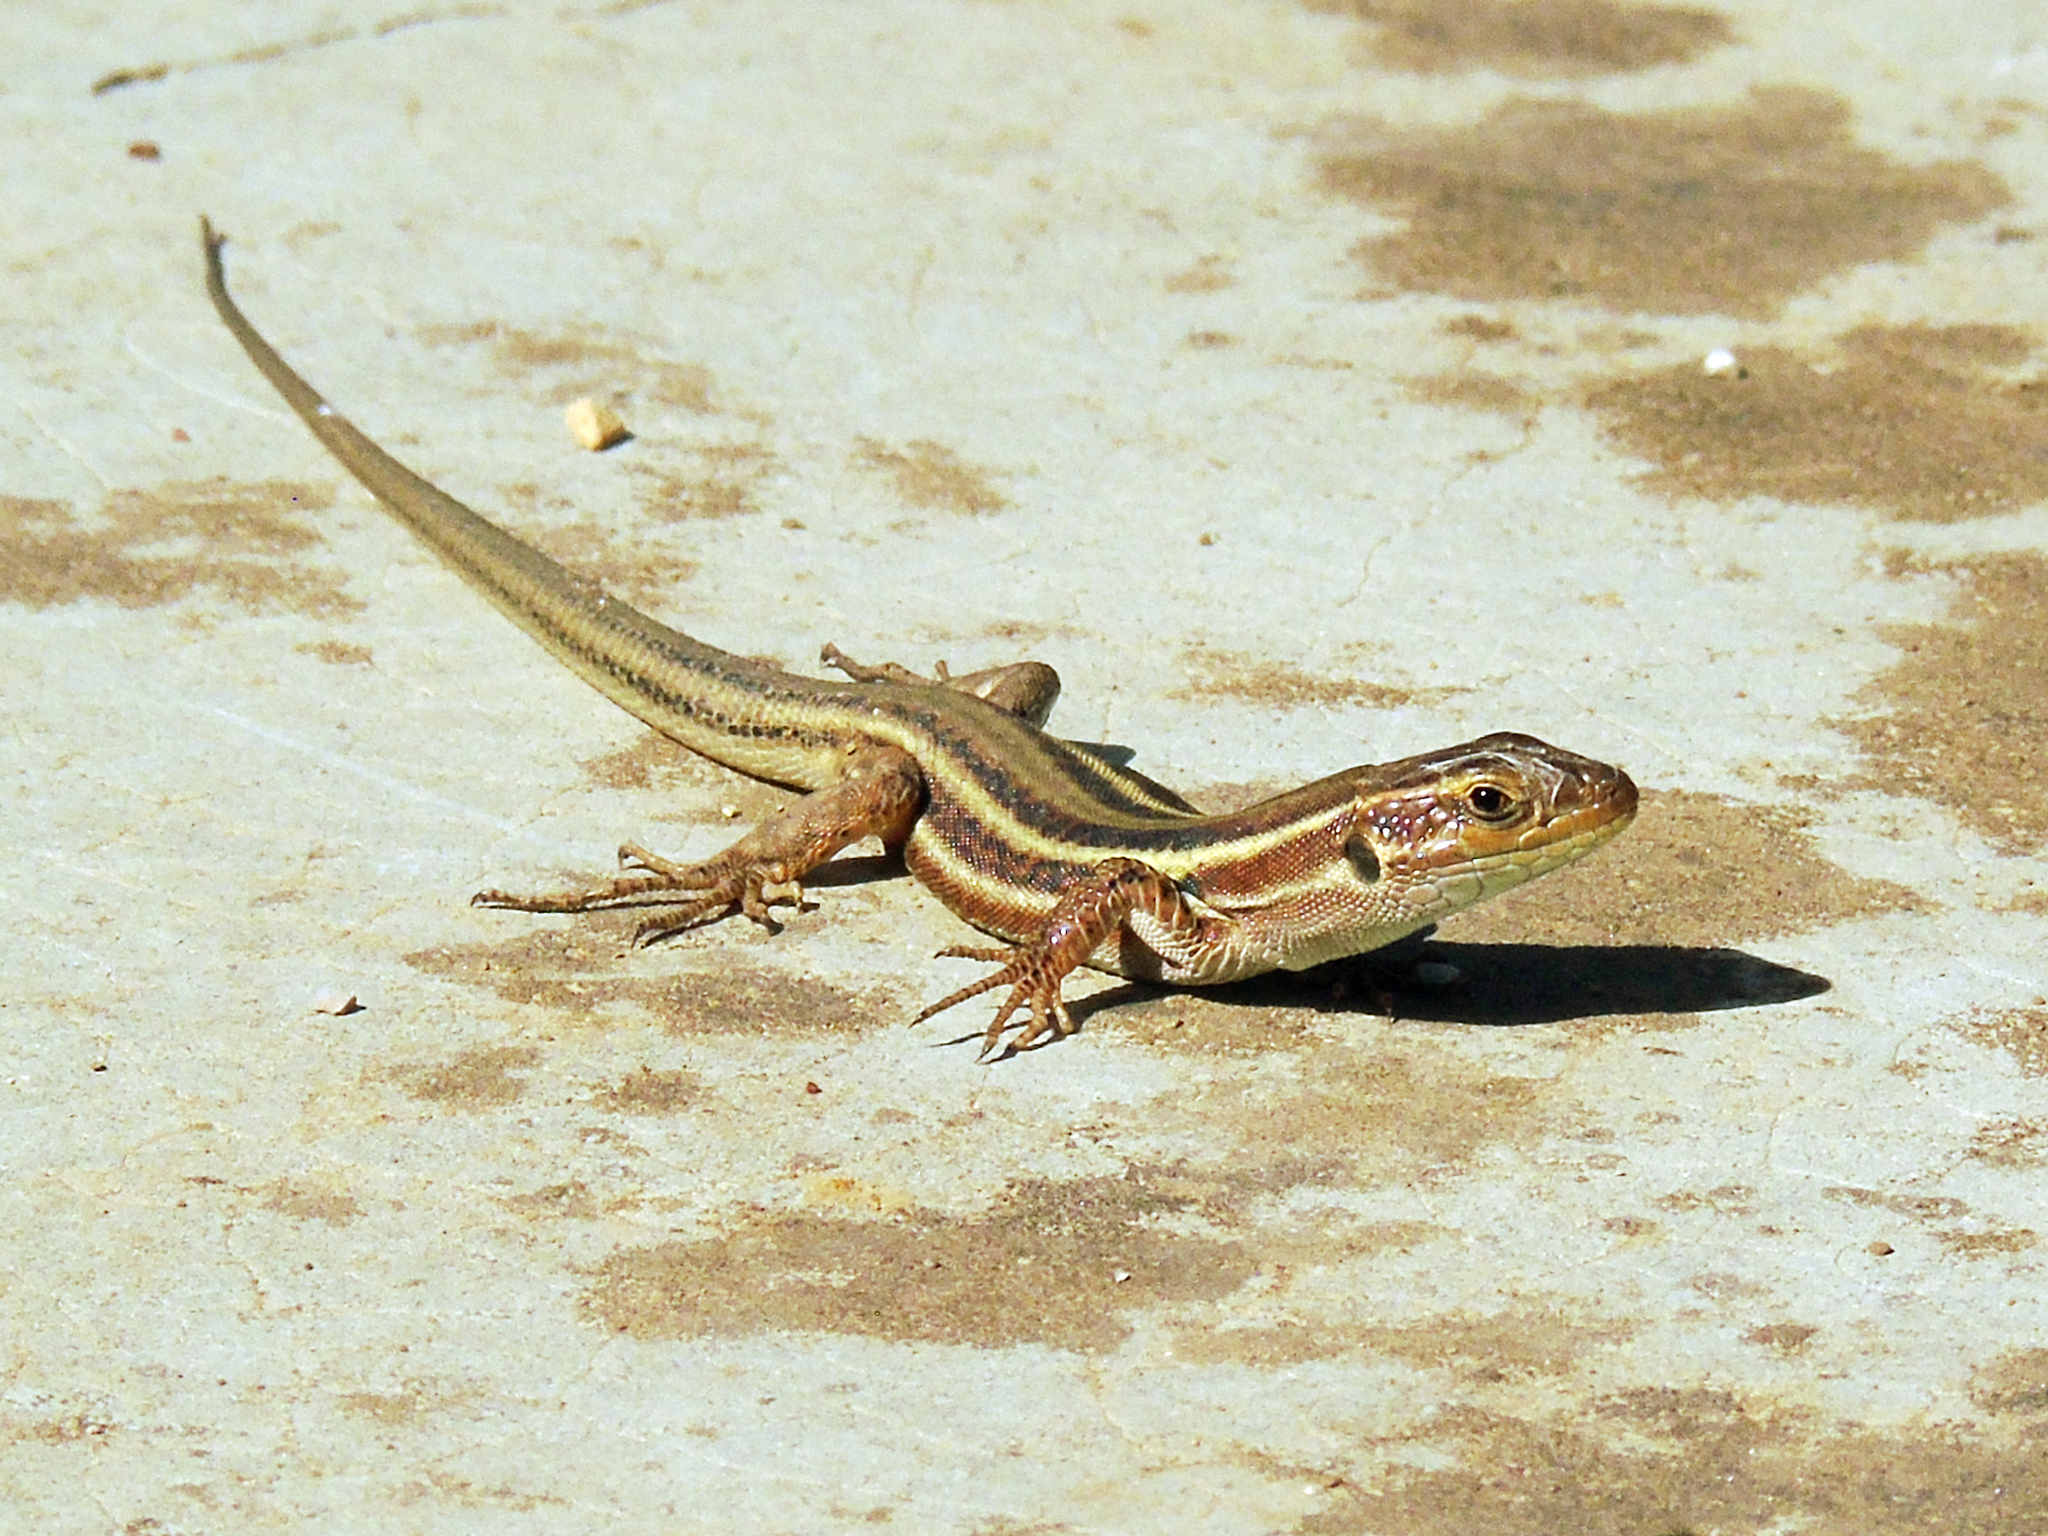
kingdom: Animalia
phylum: Chordata
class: Squamata
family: Lacertidae
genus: Podarcis
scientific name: Podarcis peloponnesiacus
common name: Peloponnese wall lizard
